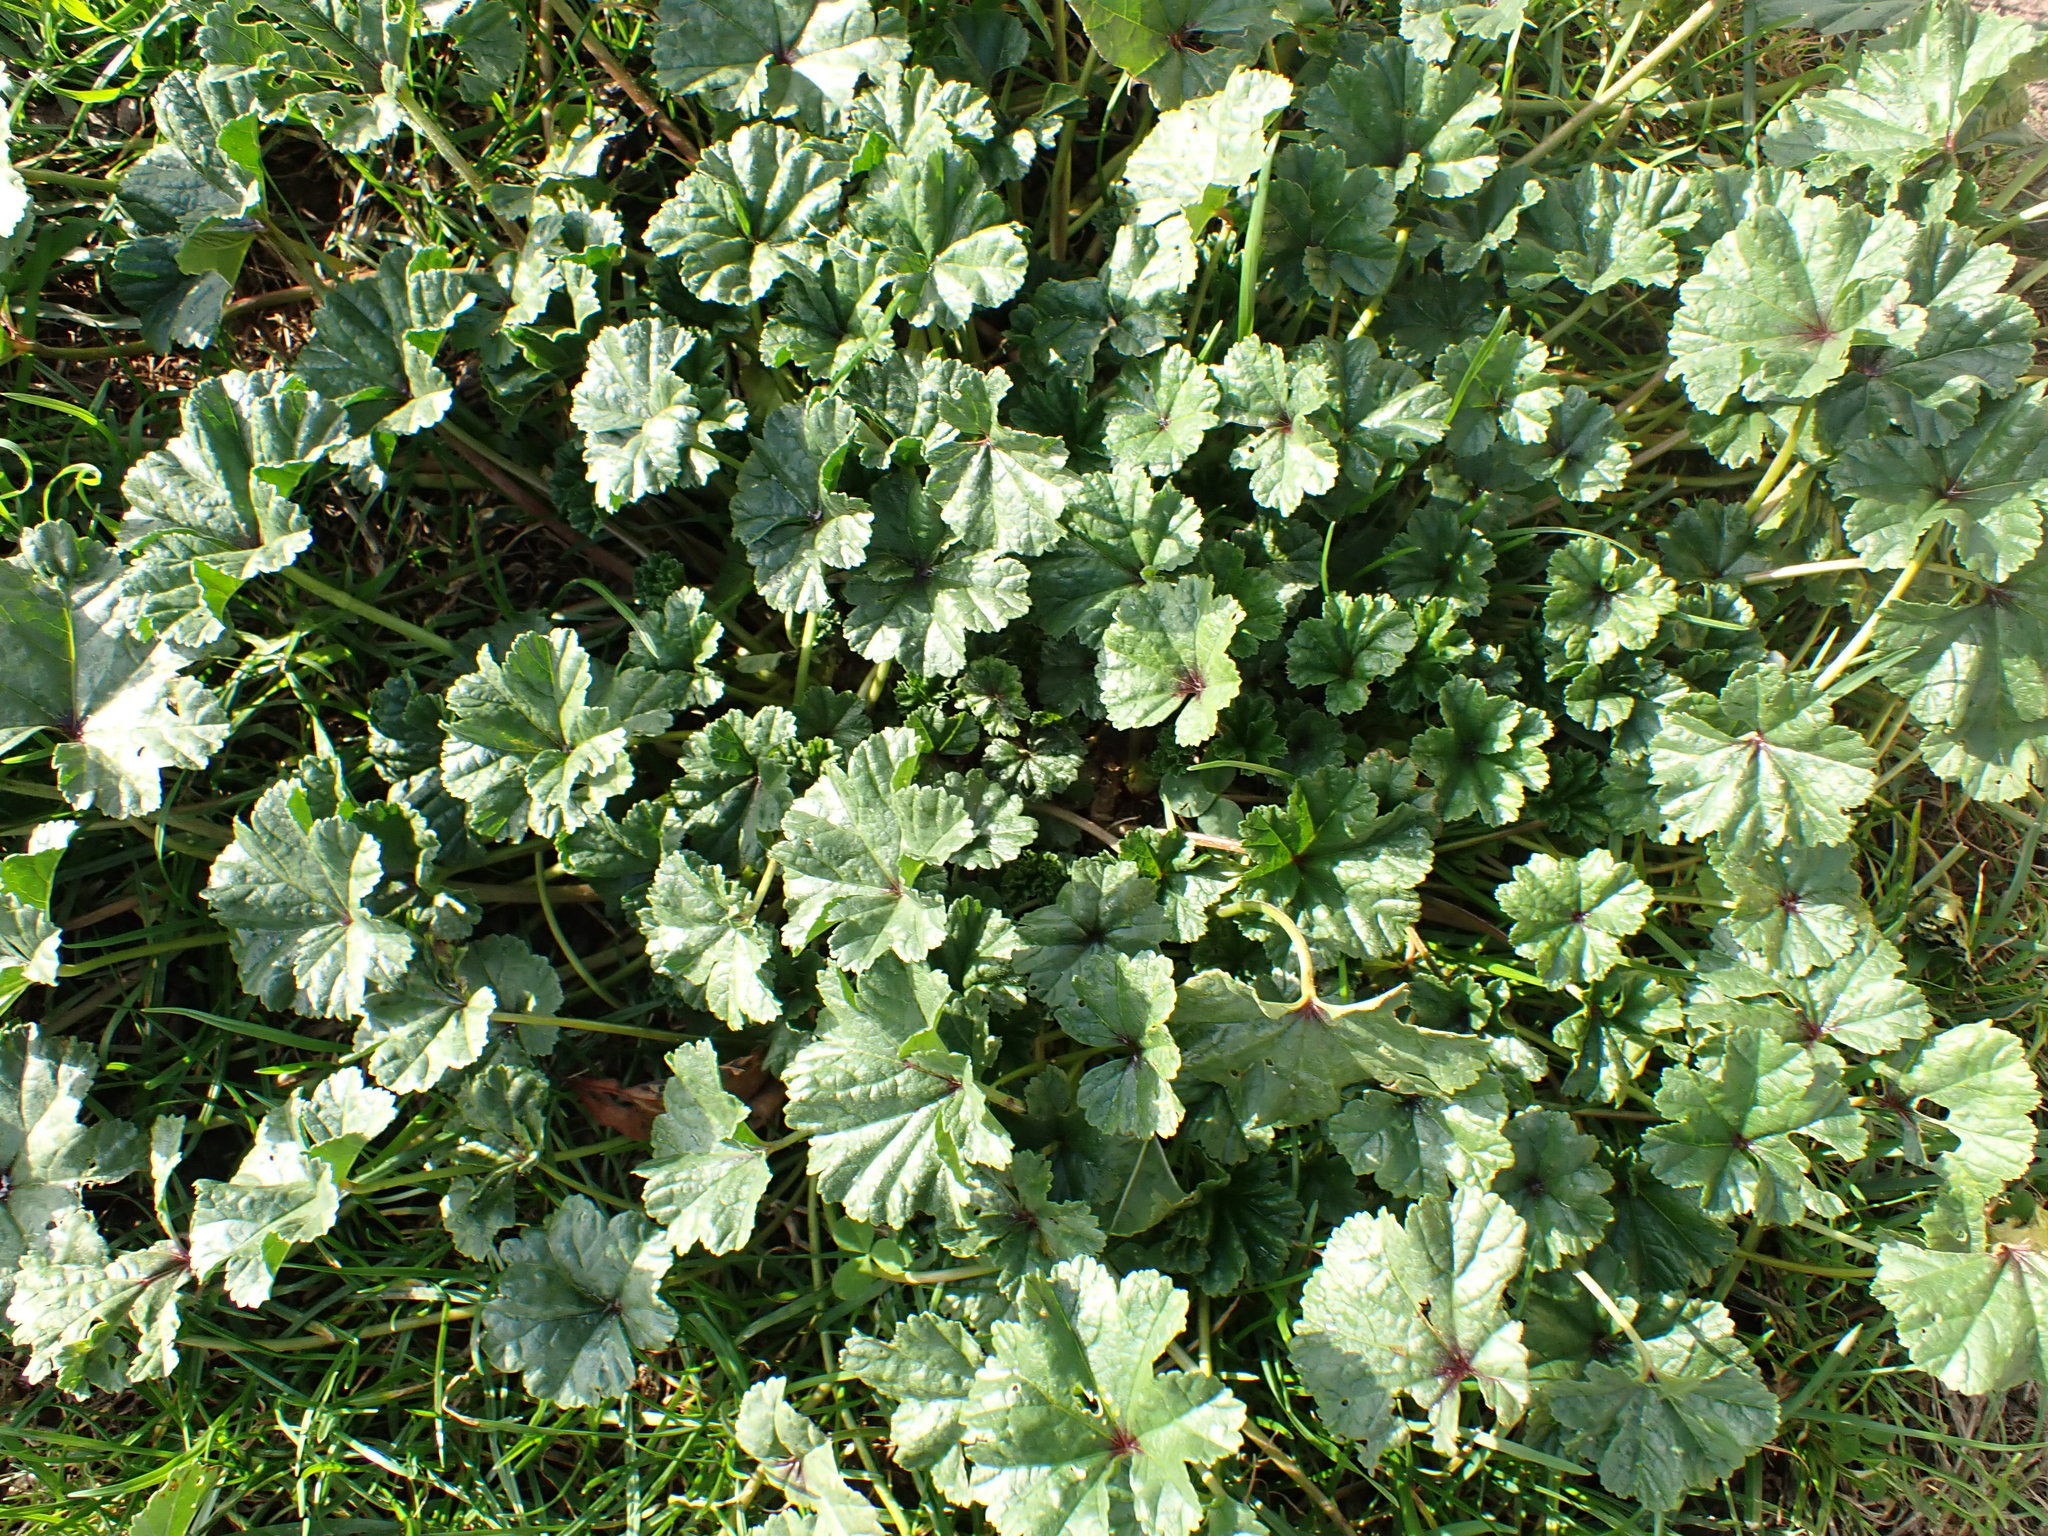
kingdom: Plantae
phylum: Tracheophyta
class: Magnoliopsida
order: Malvales
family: Malvaceae
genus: Malva
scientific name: Malva sylvestris
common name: Common mallow
